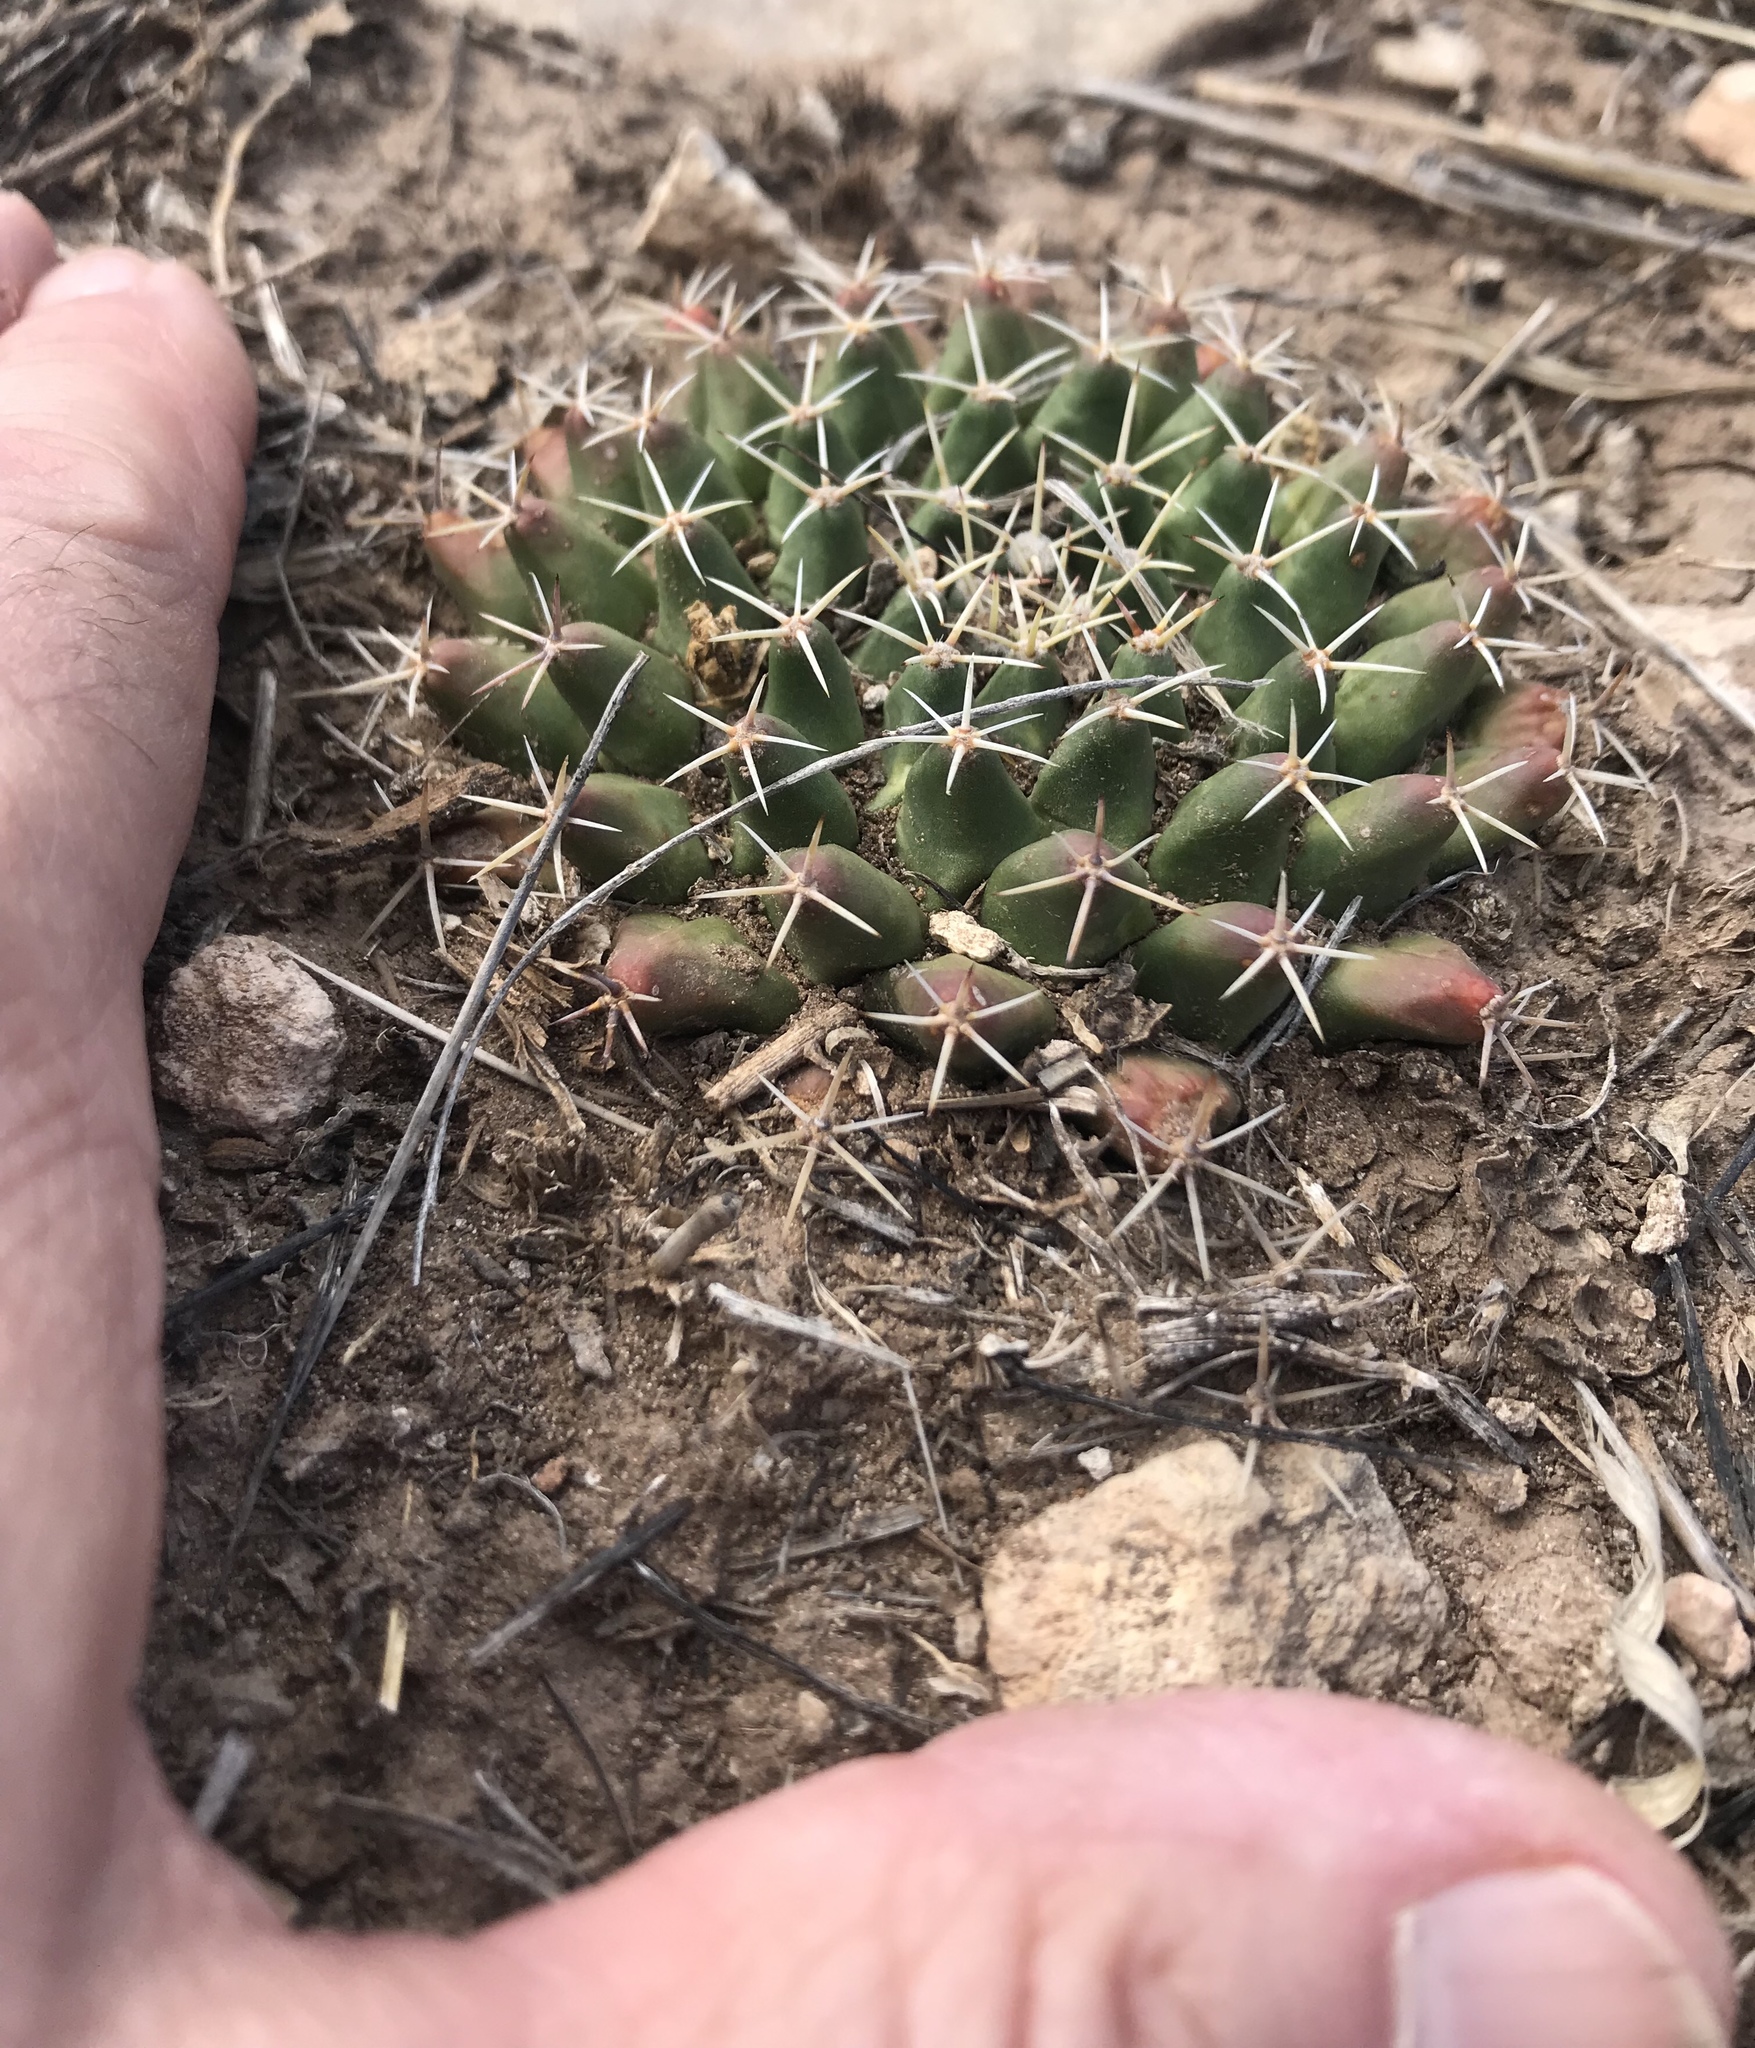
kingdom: Plantae
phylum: Tracheophyta
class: Magnoliopsida
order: Caryophyllales
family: Cactaceae
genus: Mammillaria
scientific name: Mammillaria heyderi
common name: Little nipple cactus
